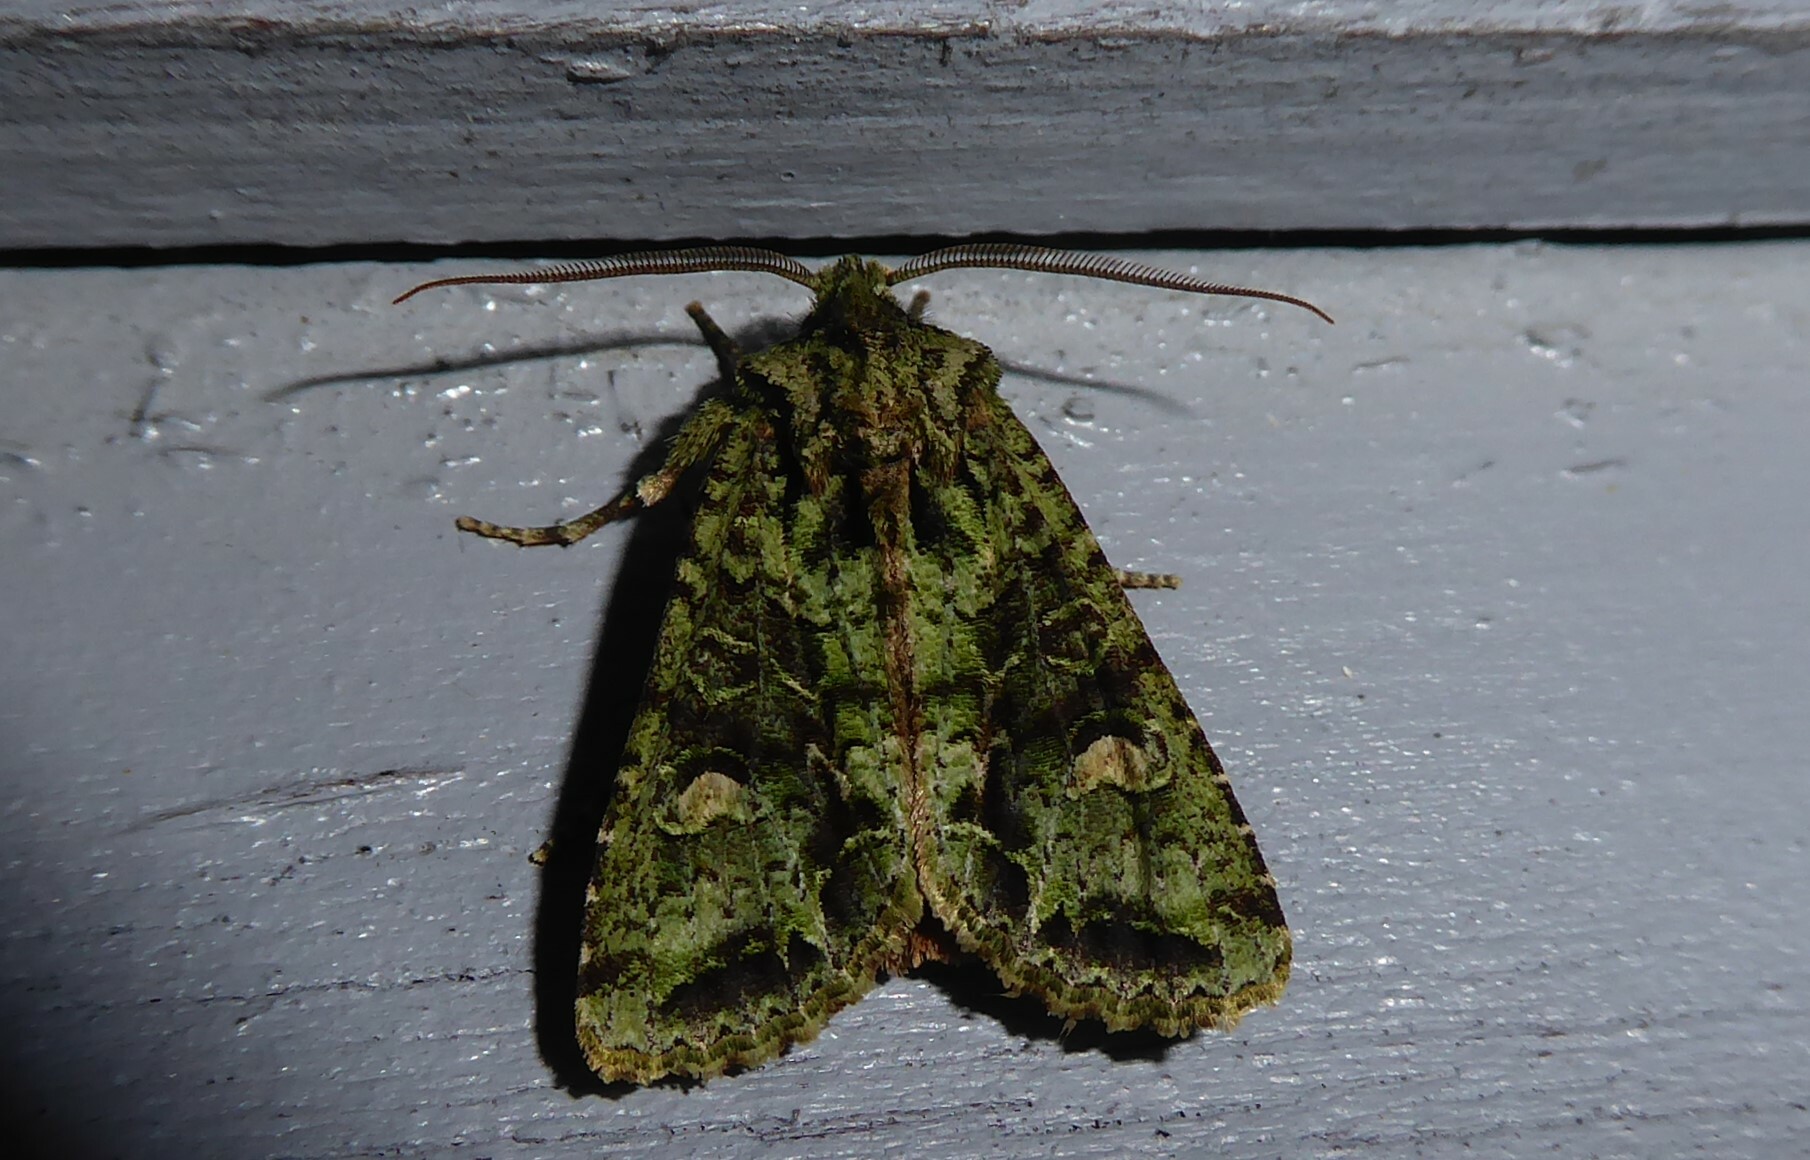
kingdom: Animalia
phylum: Arthropoda
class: Insecta
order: Lepidoptera
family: Noctuidae
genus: Ichneutica
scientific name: Ichneutica
